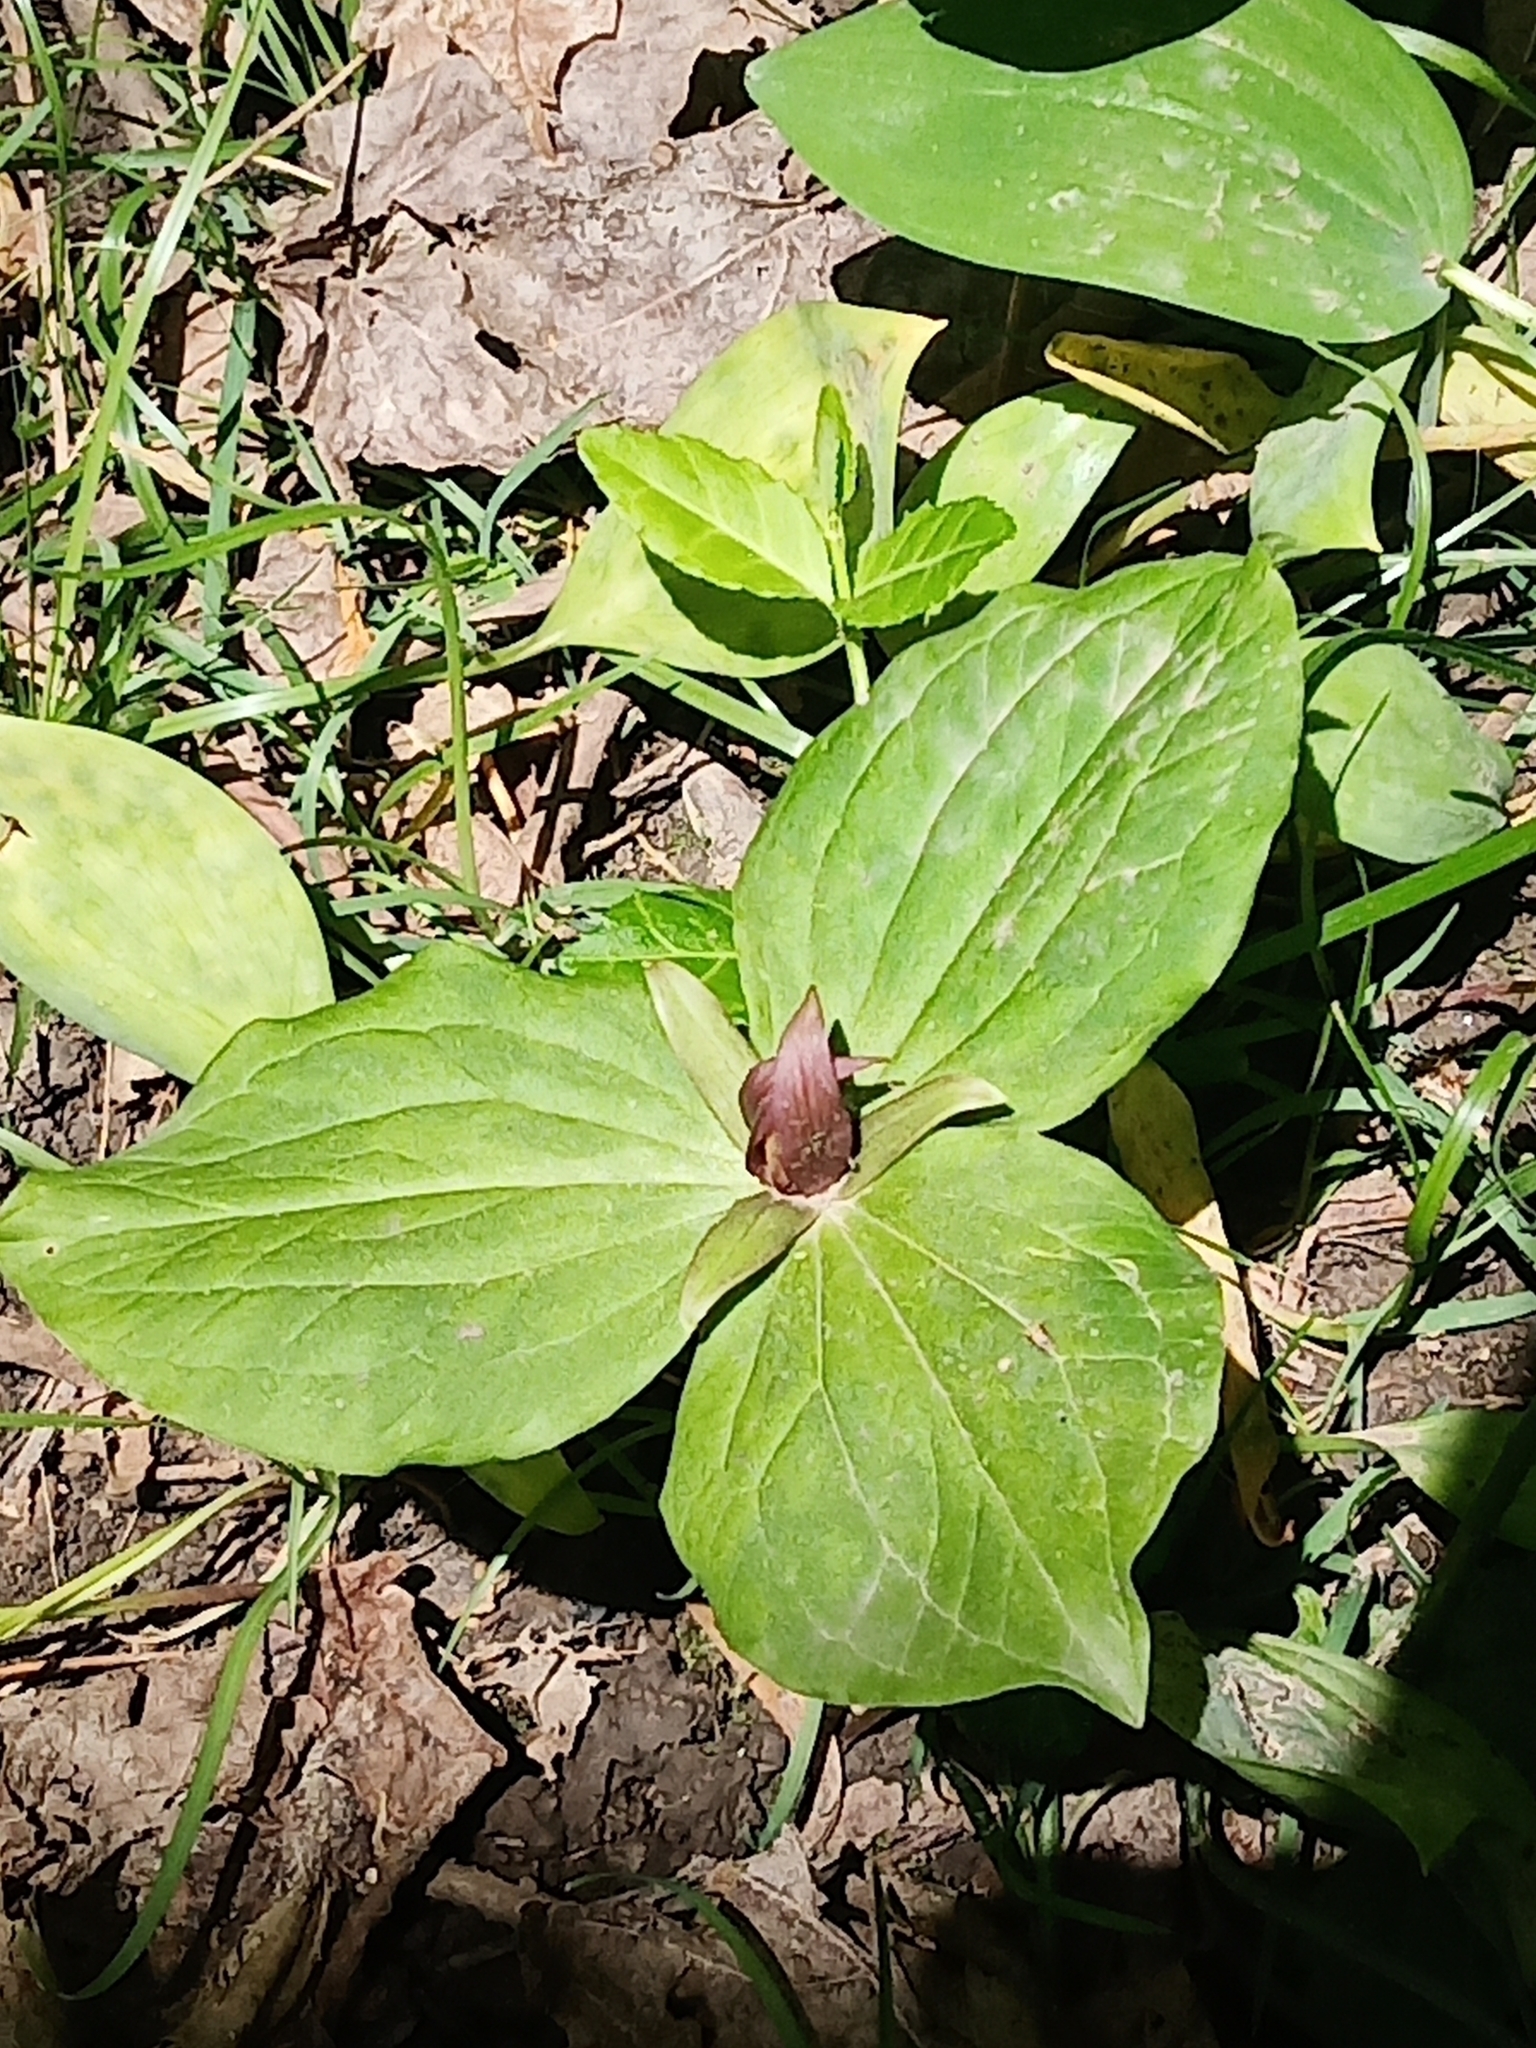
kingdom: Plantae
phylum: Tracheophyta
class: Liliopsida
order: Liliales
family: Melanthiaceae
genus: Trillium
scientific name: Trillium sessile
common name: Sessile trillium
